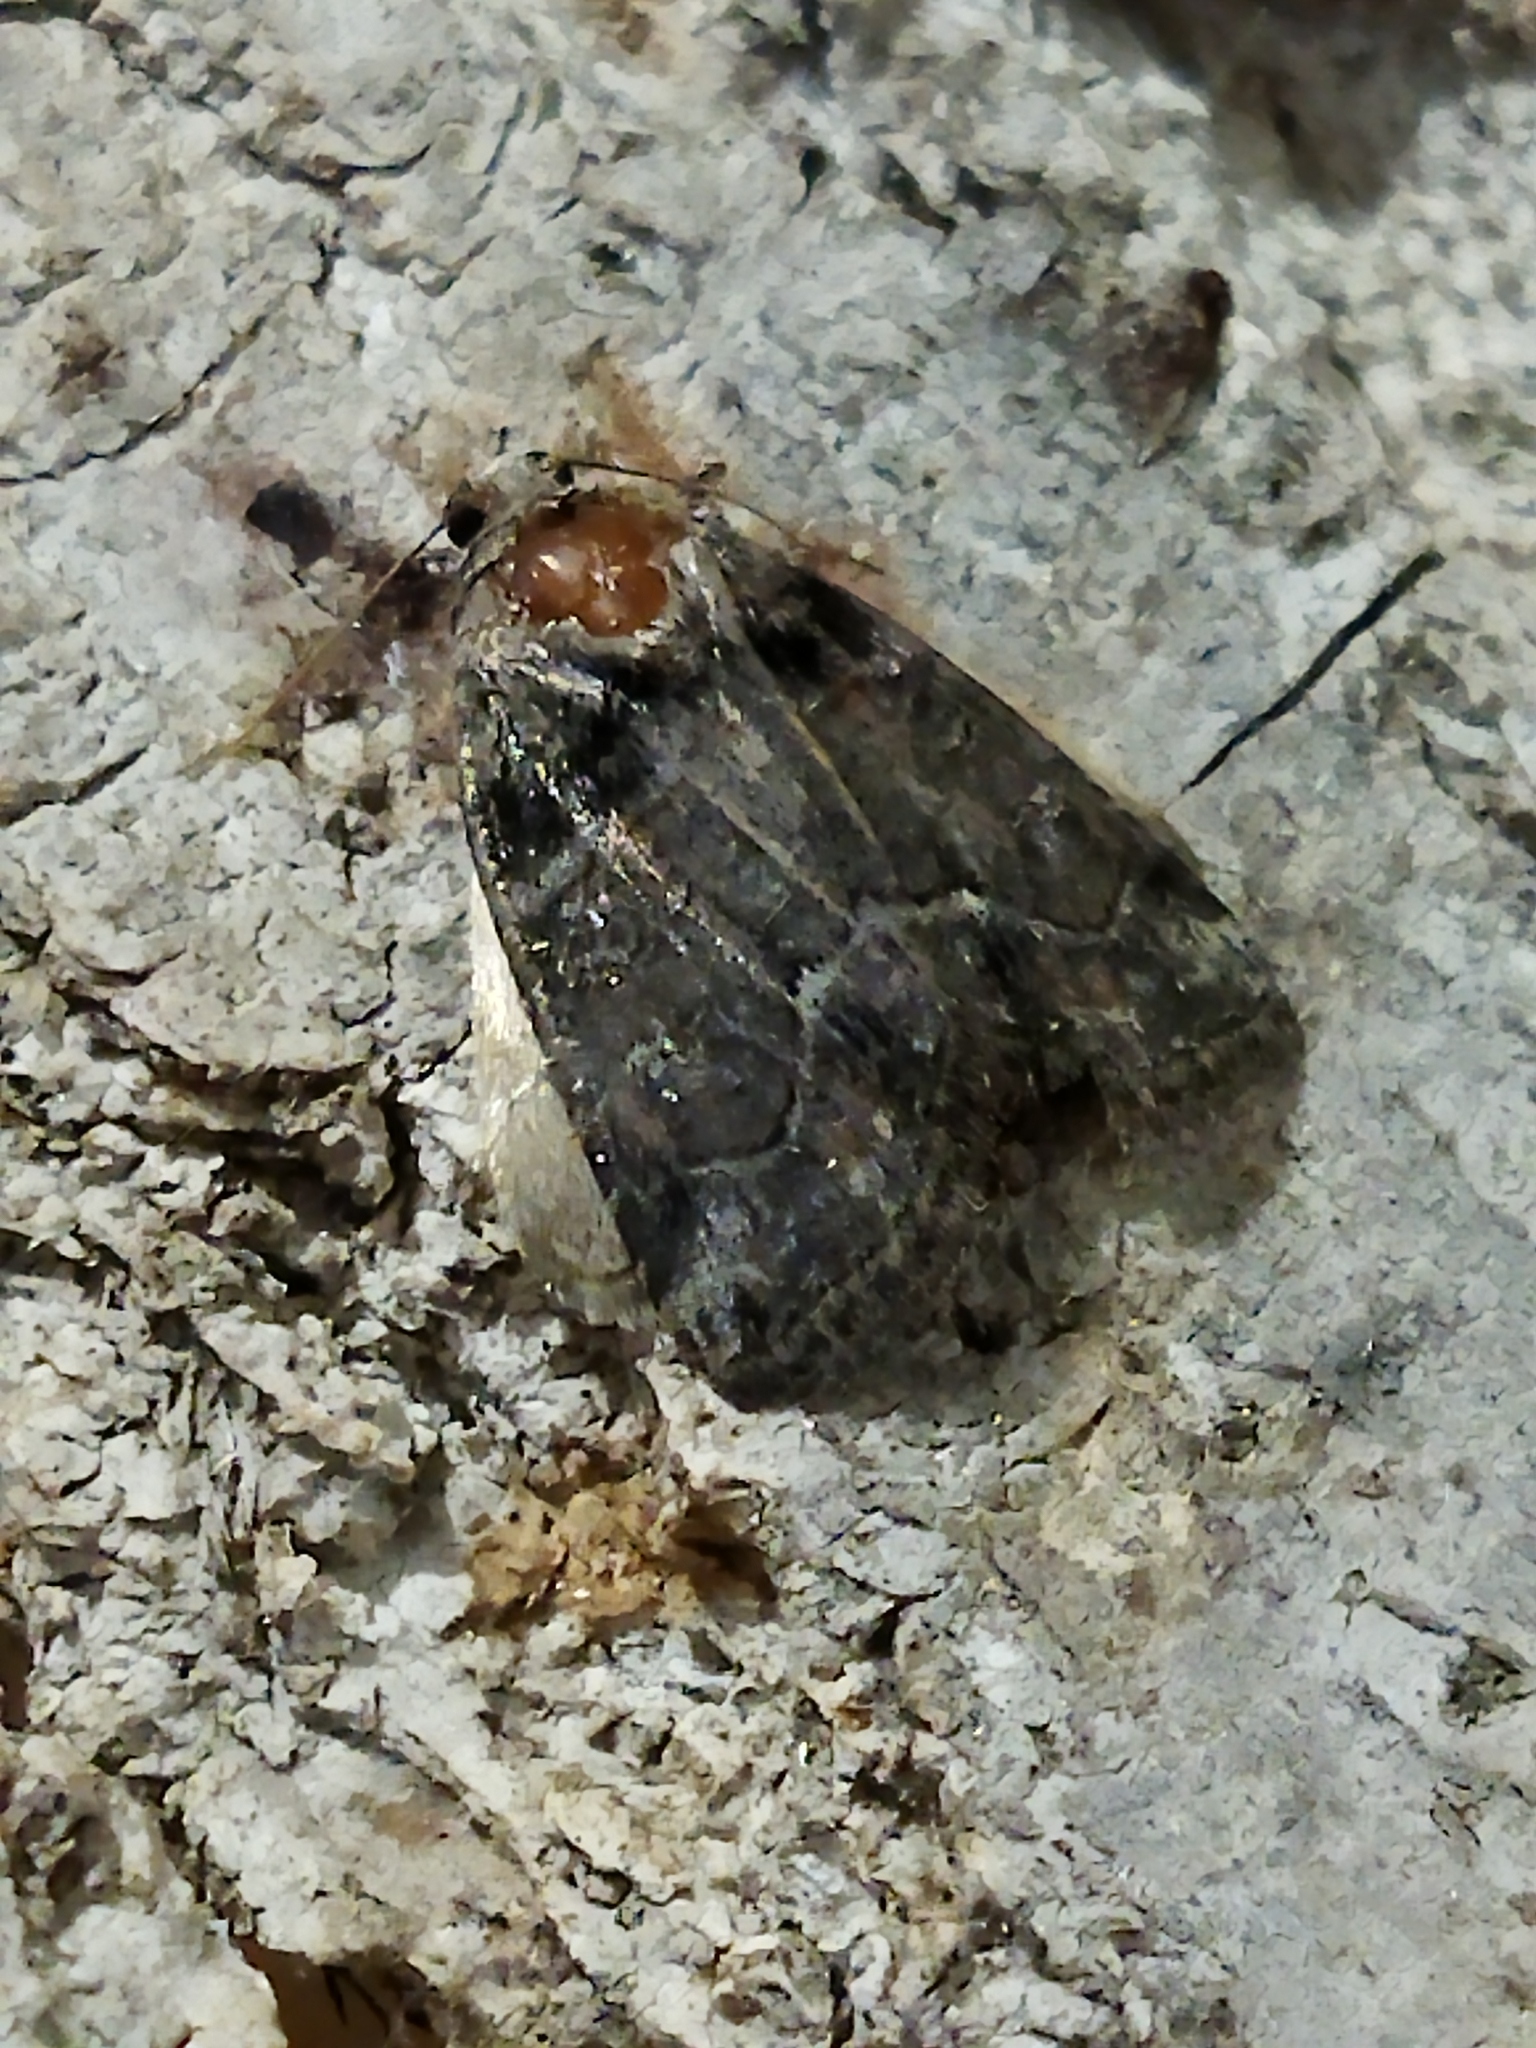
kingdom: Animalia
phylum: Arthropoda
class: Insecta
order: Lepidoptera
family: Noctuidae
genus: Bryophila
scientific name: Bryophila tephrocharis
